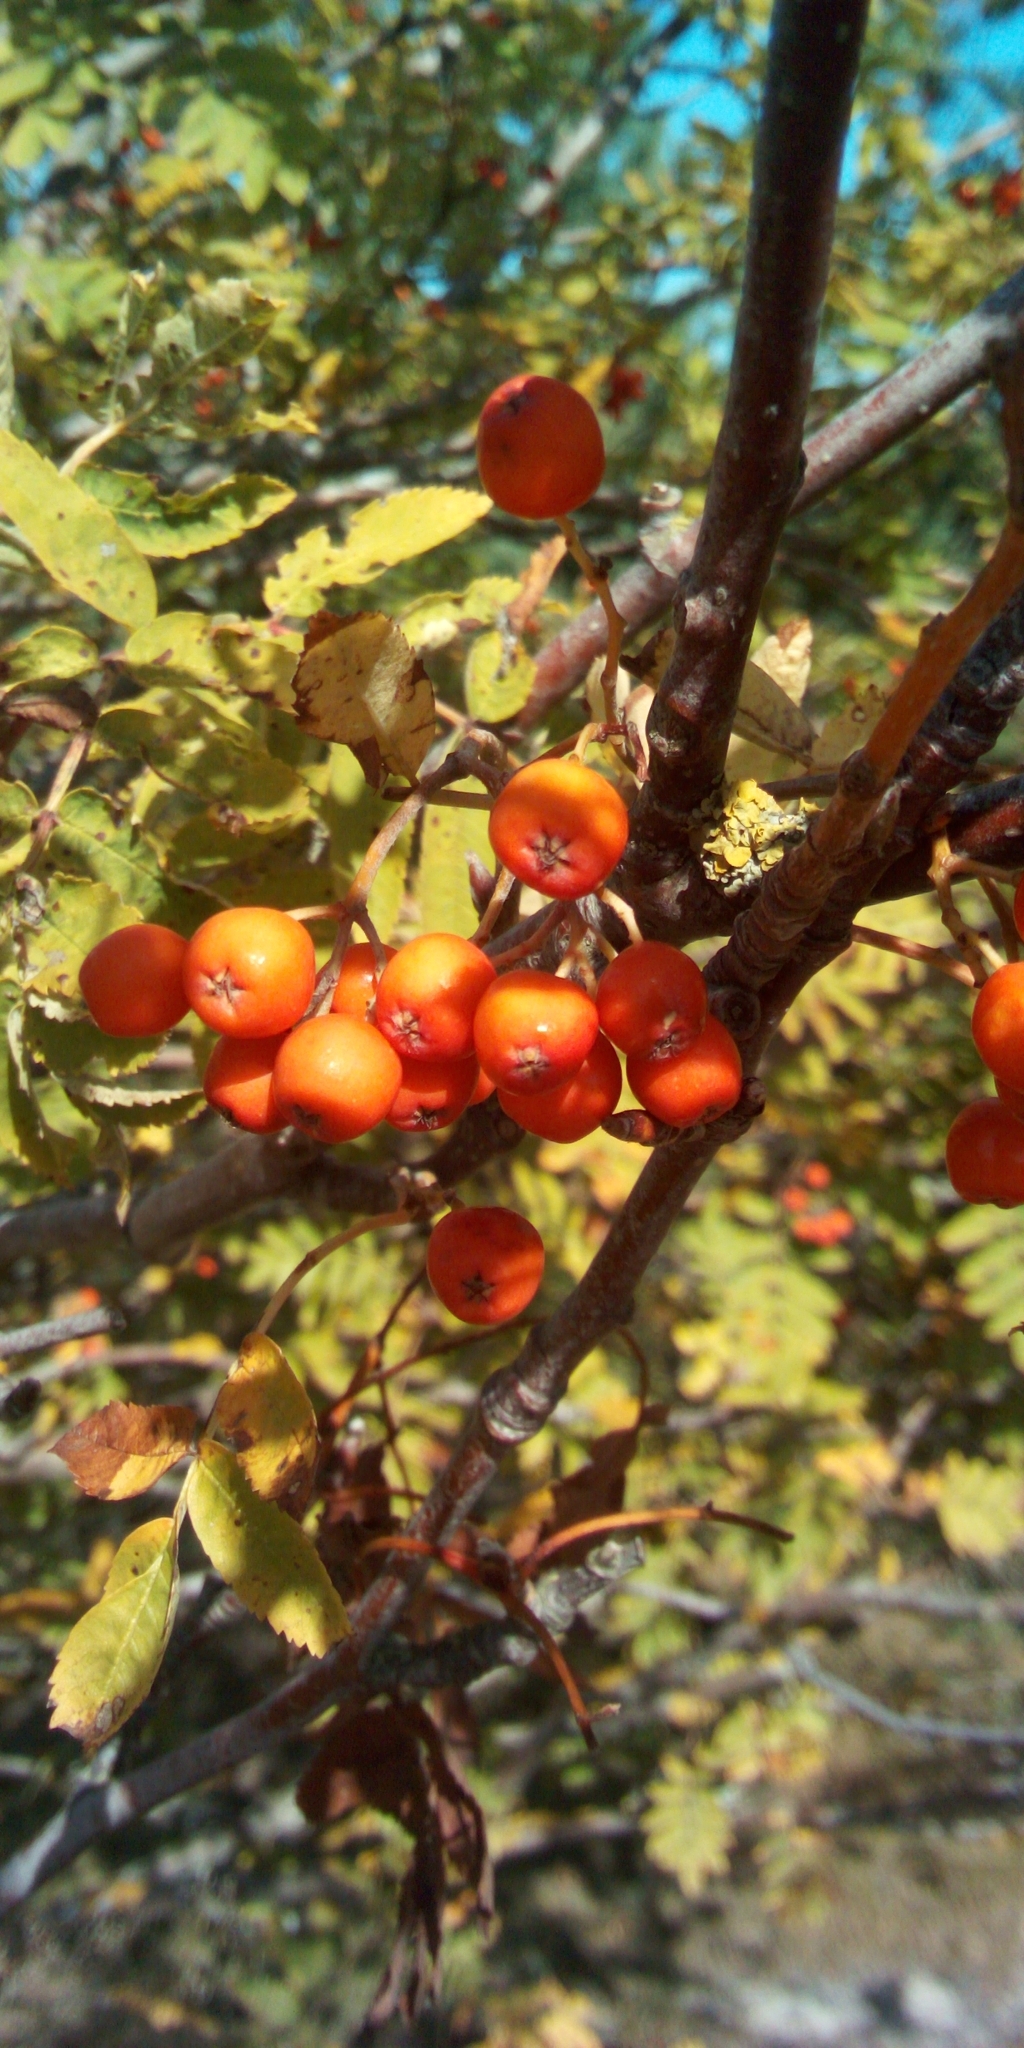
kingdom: Plantae
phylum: Tracheophyta
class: Magnoliopsida
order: Rosales
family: Rosaceae
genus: Sorbus
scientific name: Sorbus aucuparia
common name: Rowan
